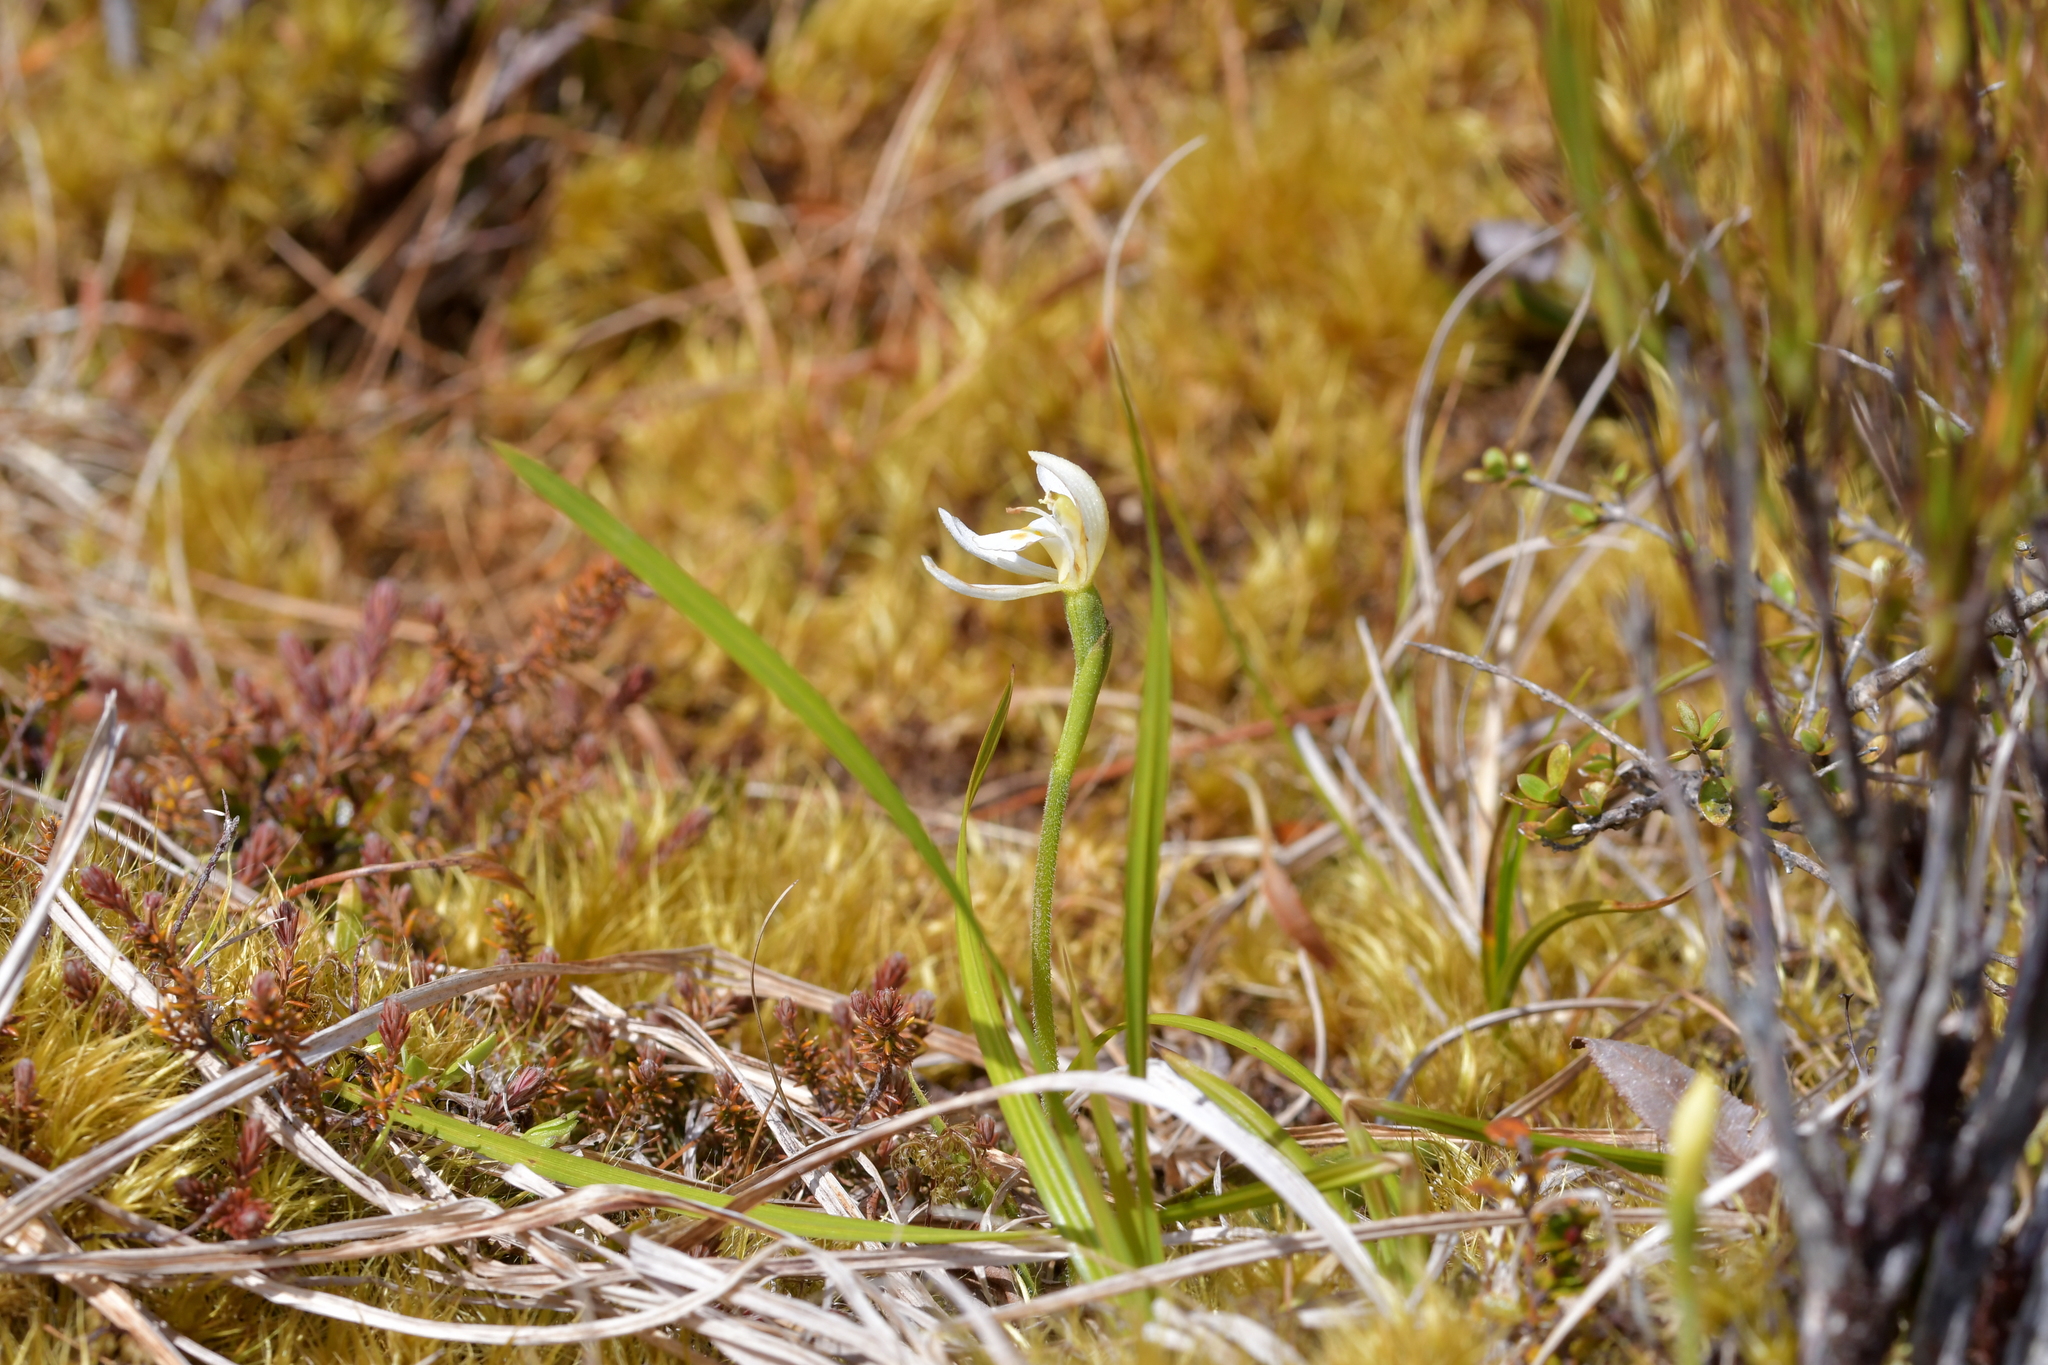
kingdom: Plantae
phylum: Tracheophyta
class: Liliopsida
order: Asparagales
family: Orchidaceae
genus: Aporostylis
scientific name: Aporostylis bifolia
